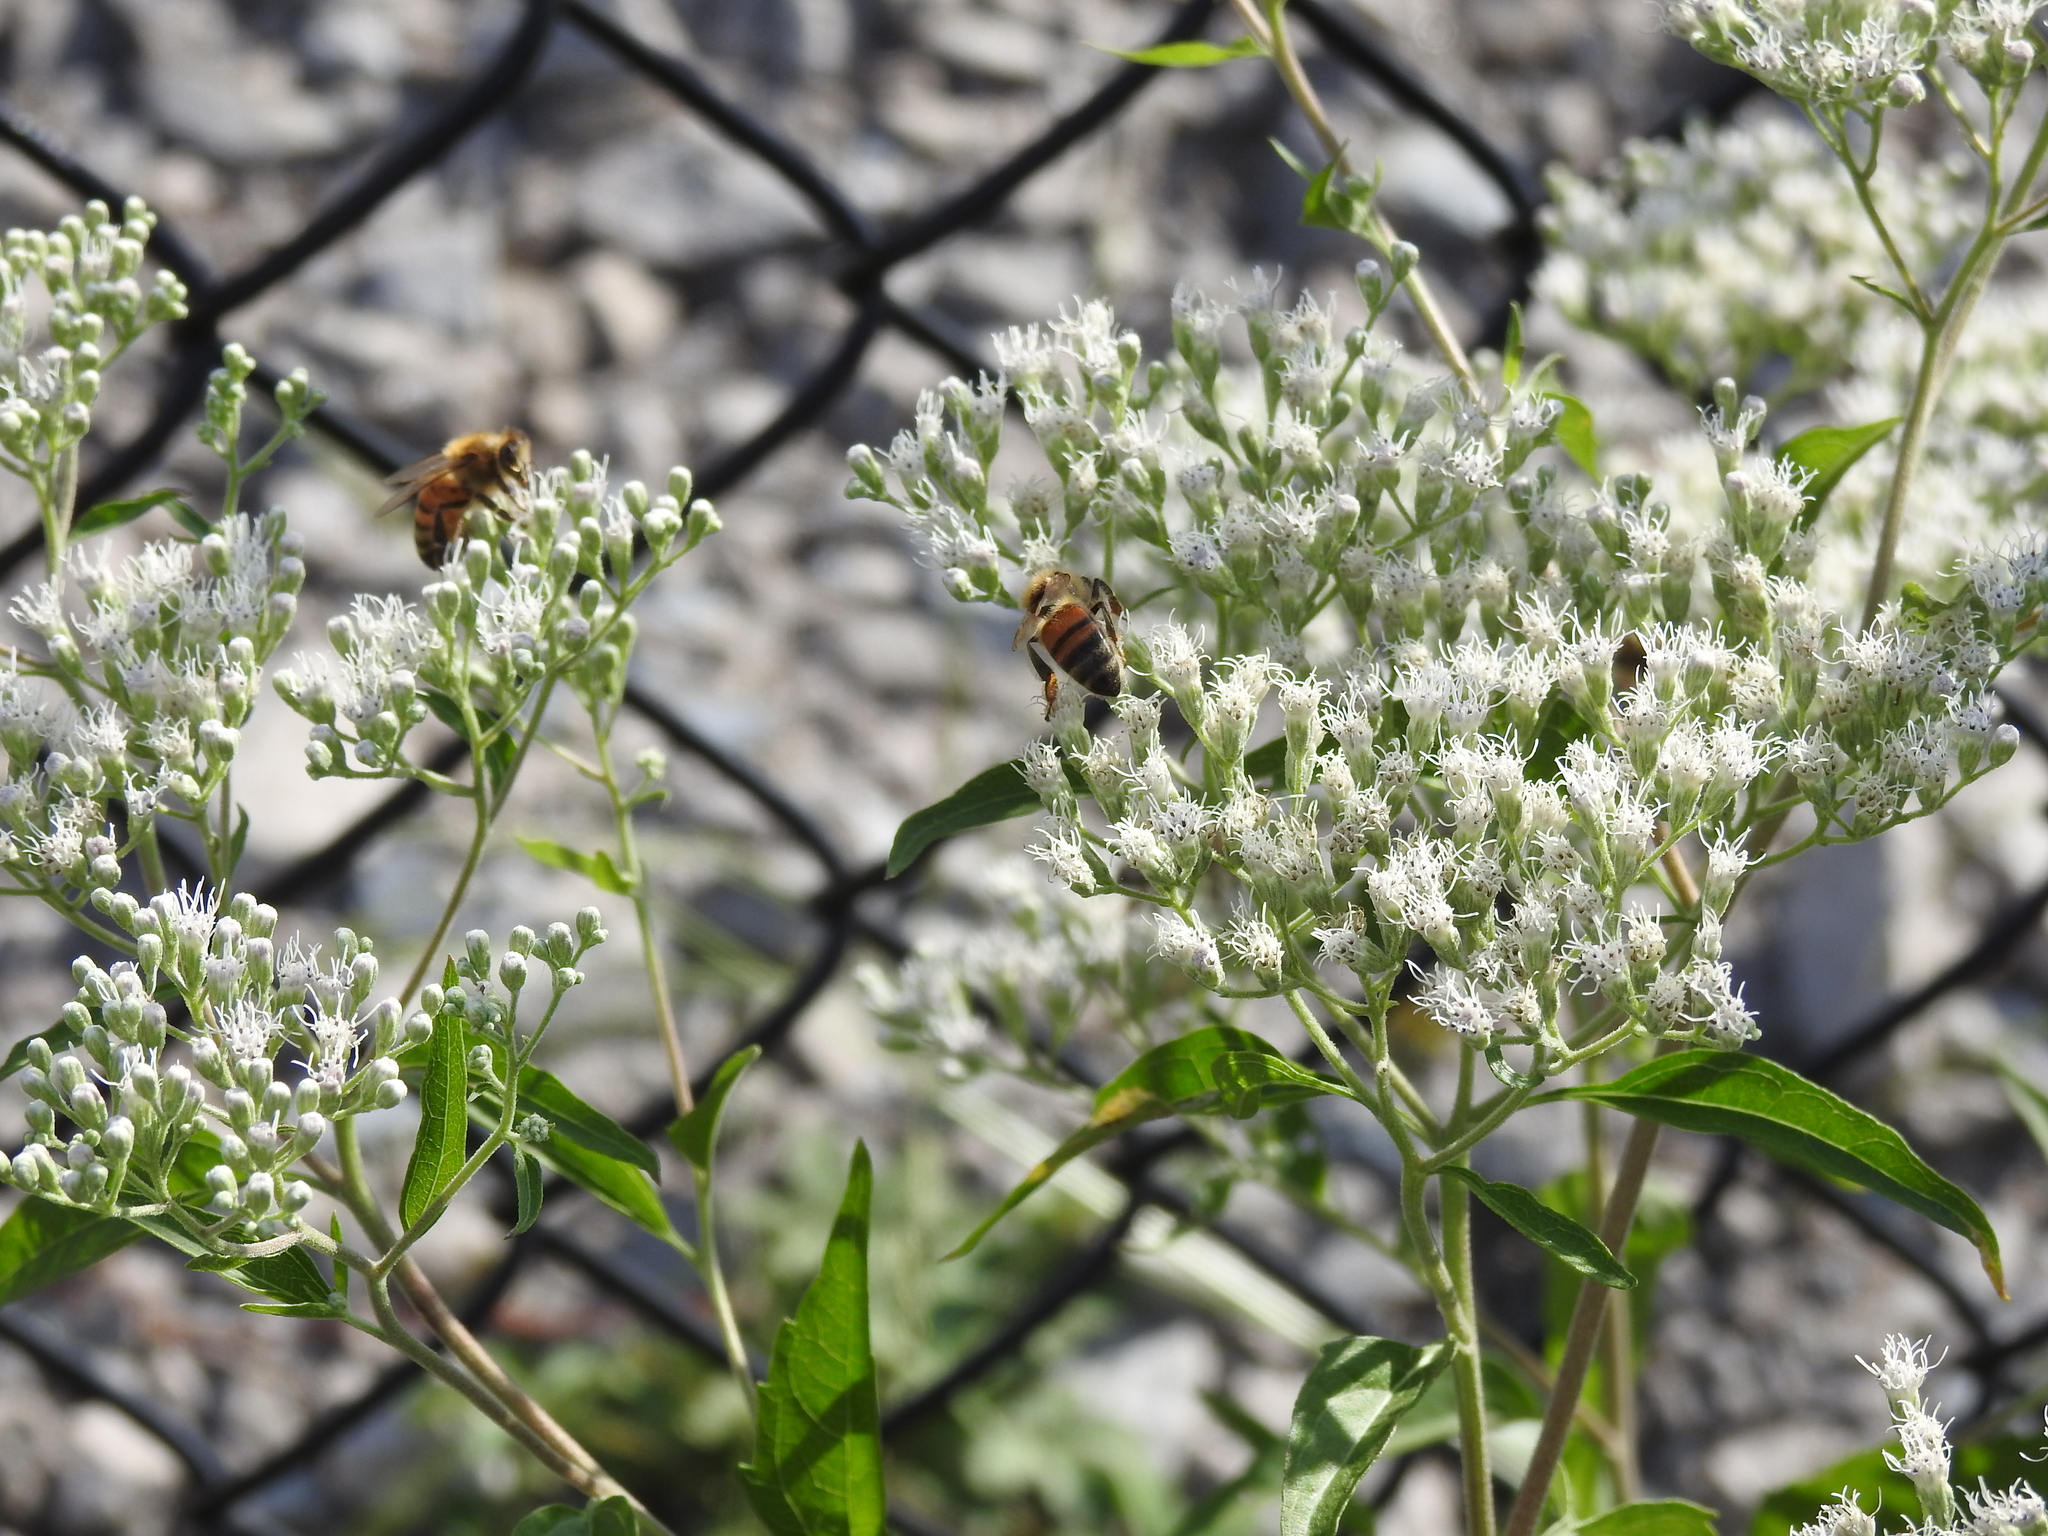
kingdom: Animalia
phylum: Arthropoda
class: Insecta
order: Hymenoptera
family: Apidae
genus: Apis
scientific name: Apis mellifera
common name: Honey bee
